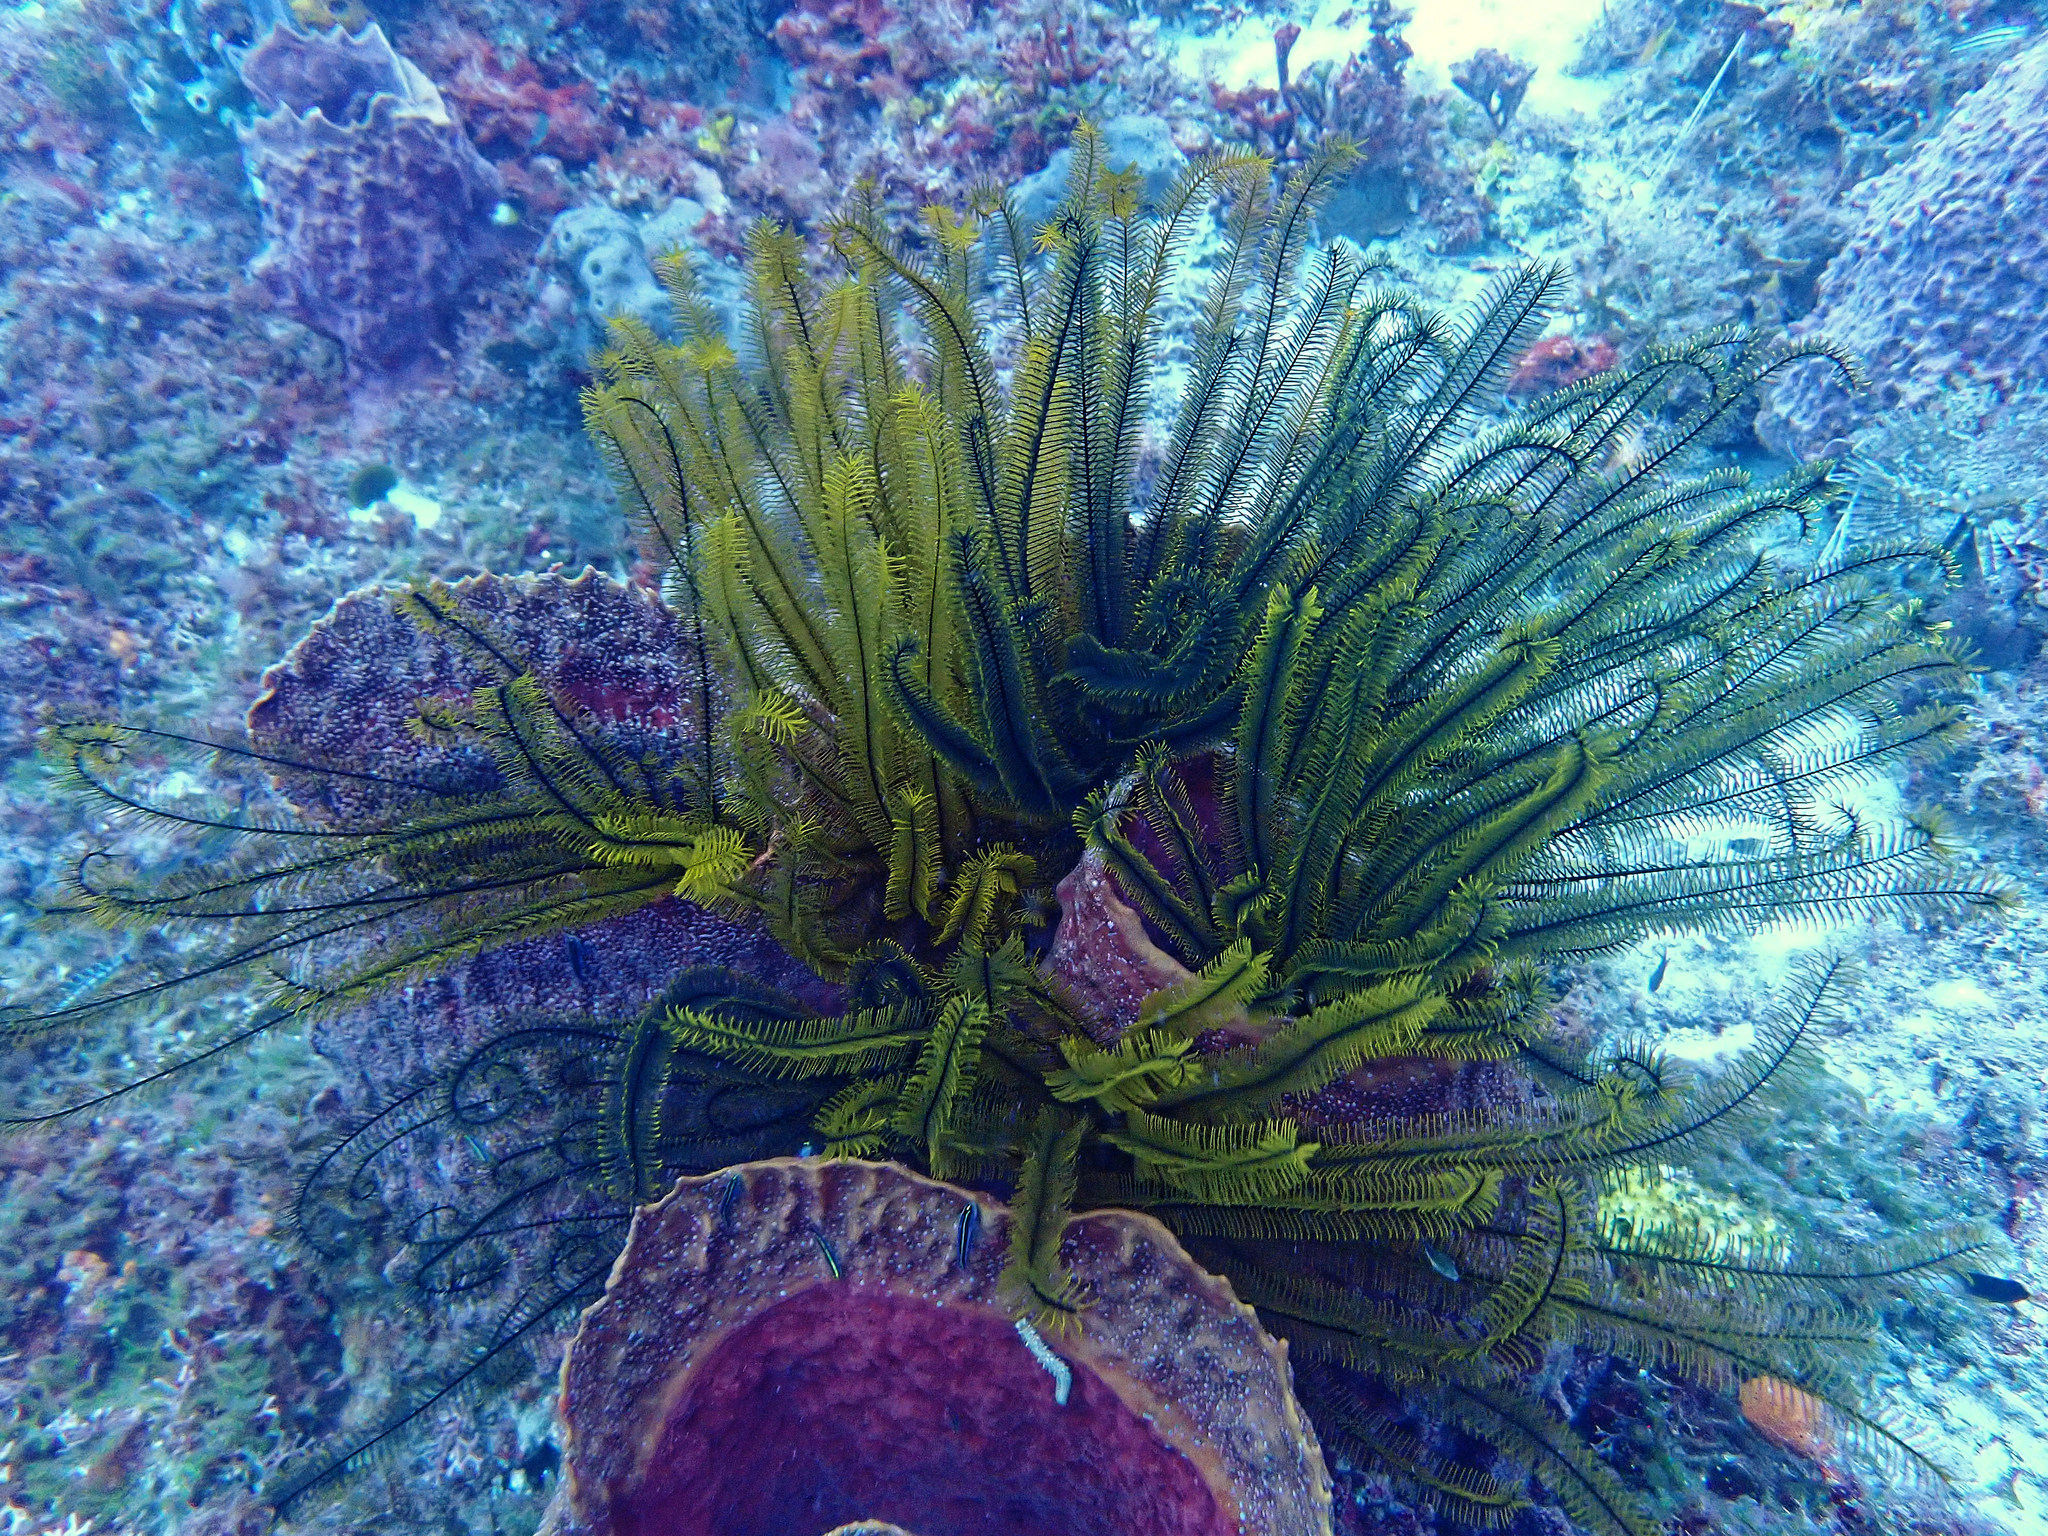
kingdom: Animalia
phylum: Echinodermata
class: Crinoidea
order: Comatulida
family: Comatulidae
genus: Davidaster
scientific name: Davidaster rubiginosus
